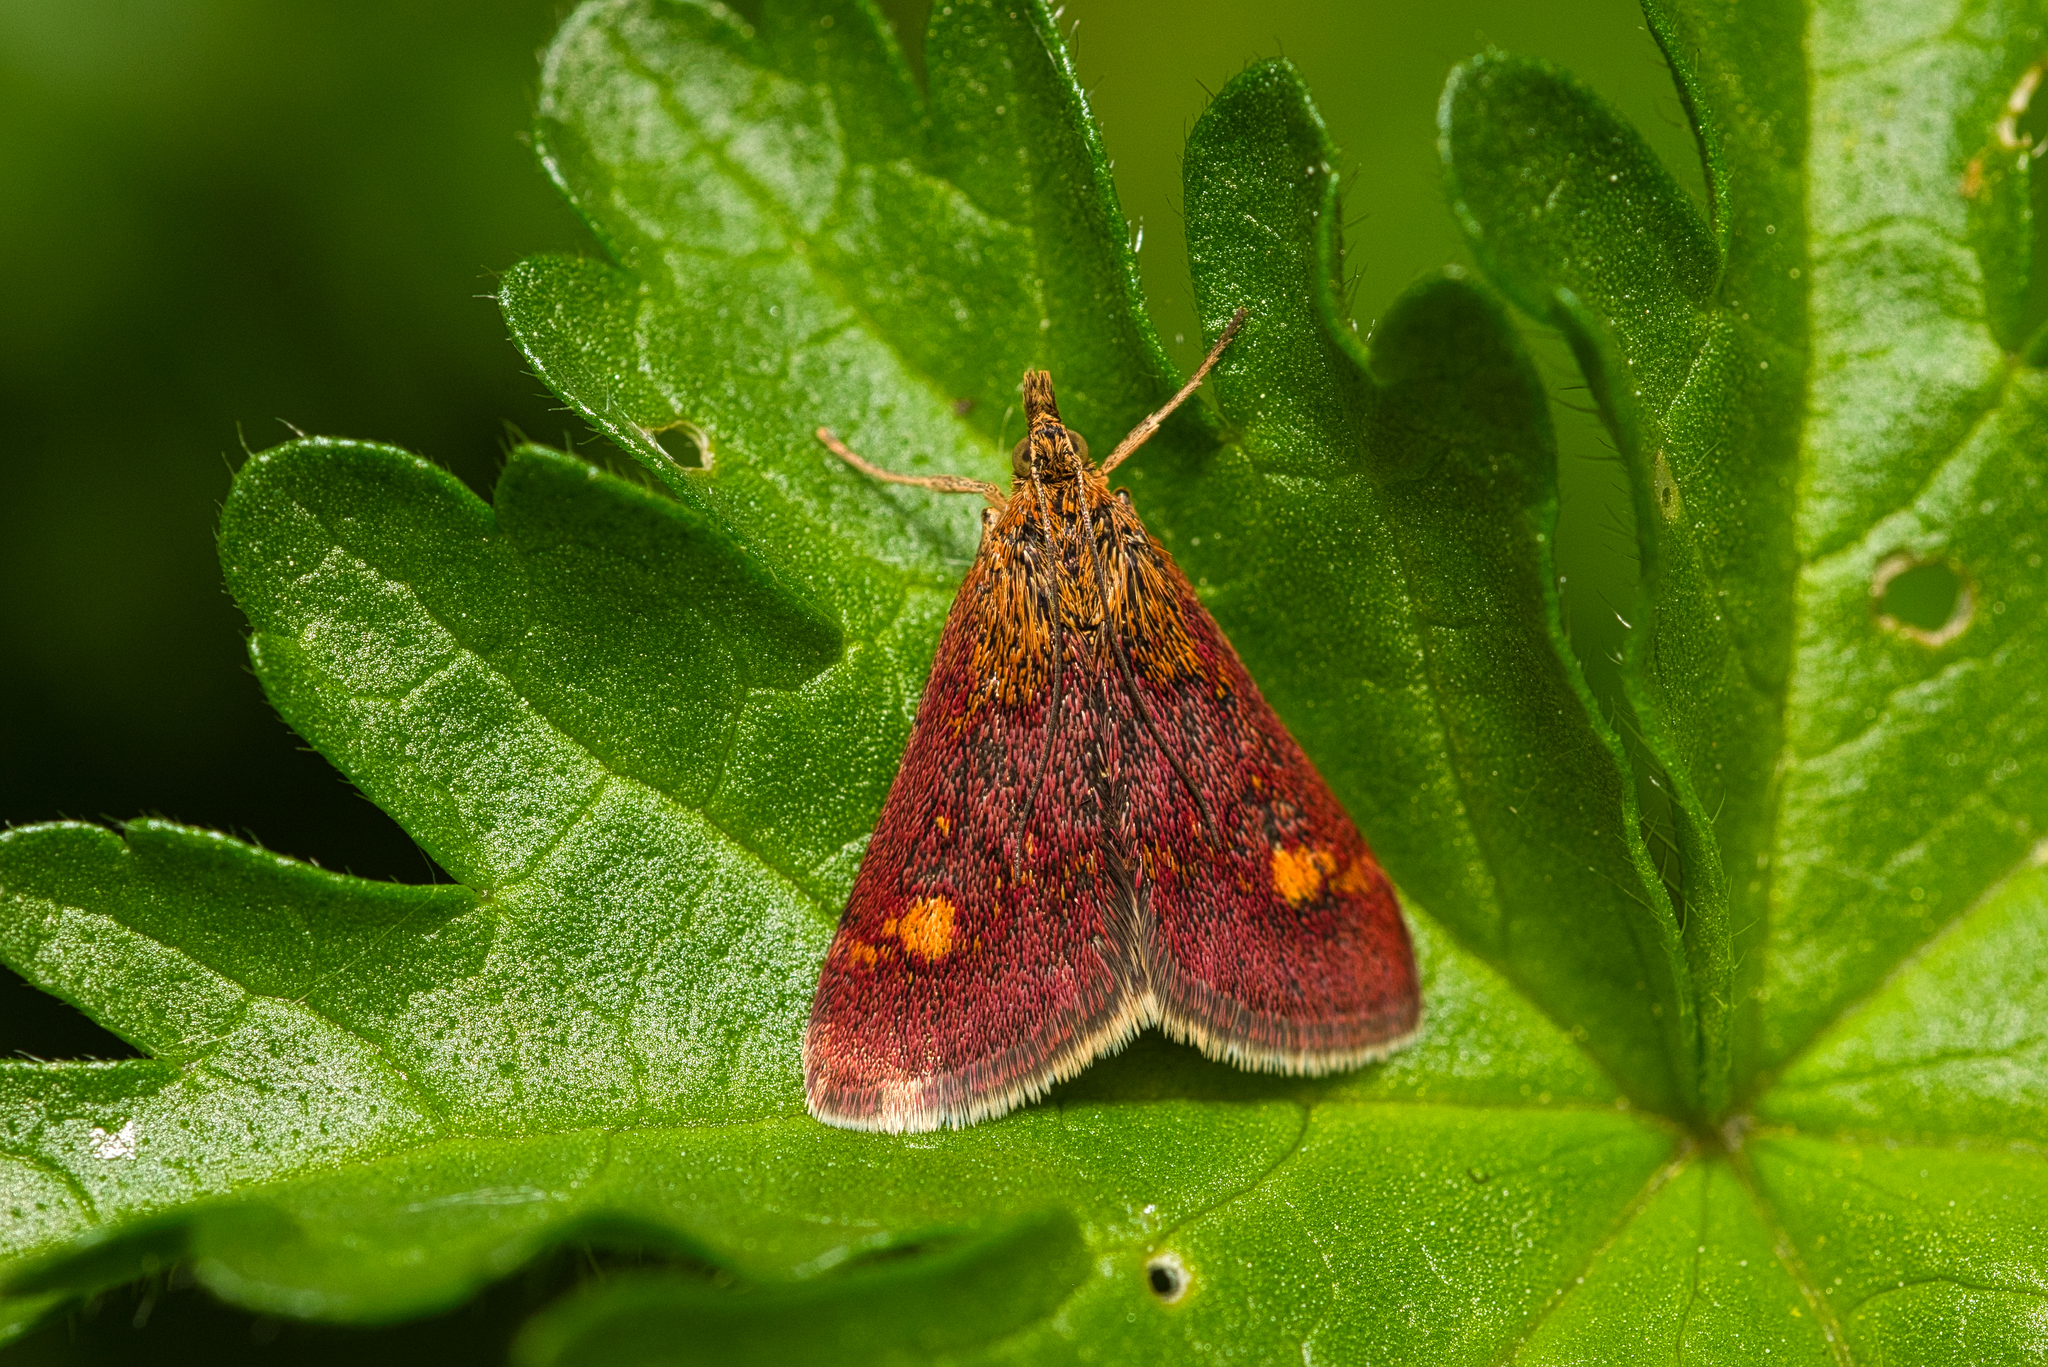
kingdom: Animalia
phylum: Arthropoda
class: Insecta
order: Lepidoptera
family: Crambidae
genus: Pyrausta
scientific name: Pyrausta aurata
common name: Small purple & gold
